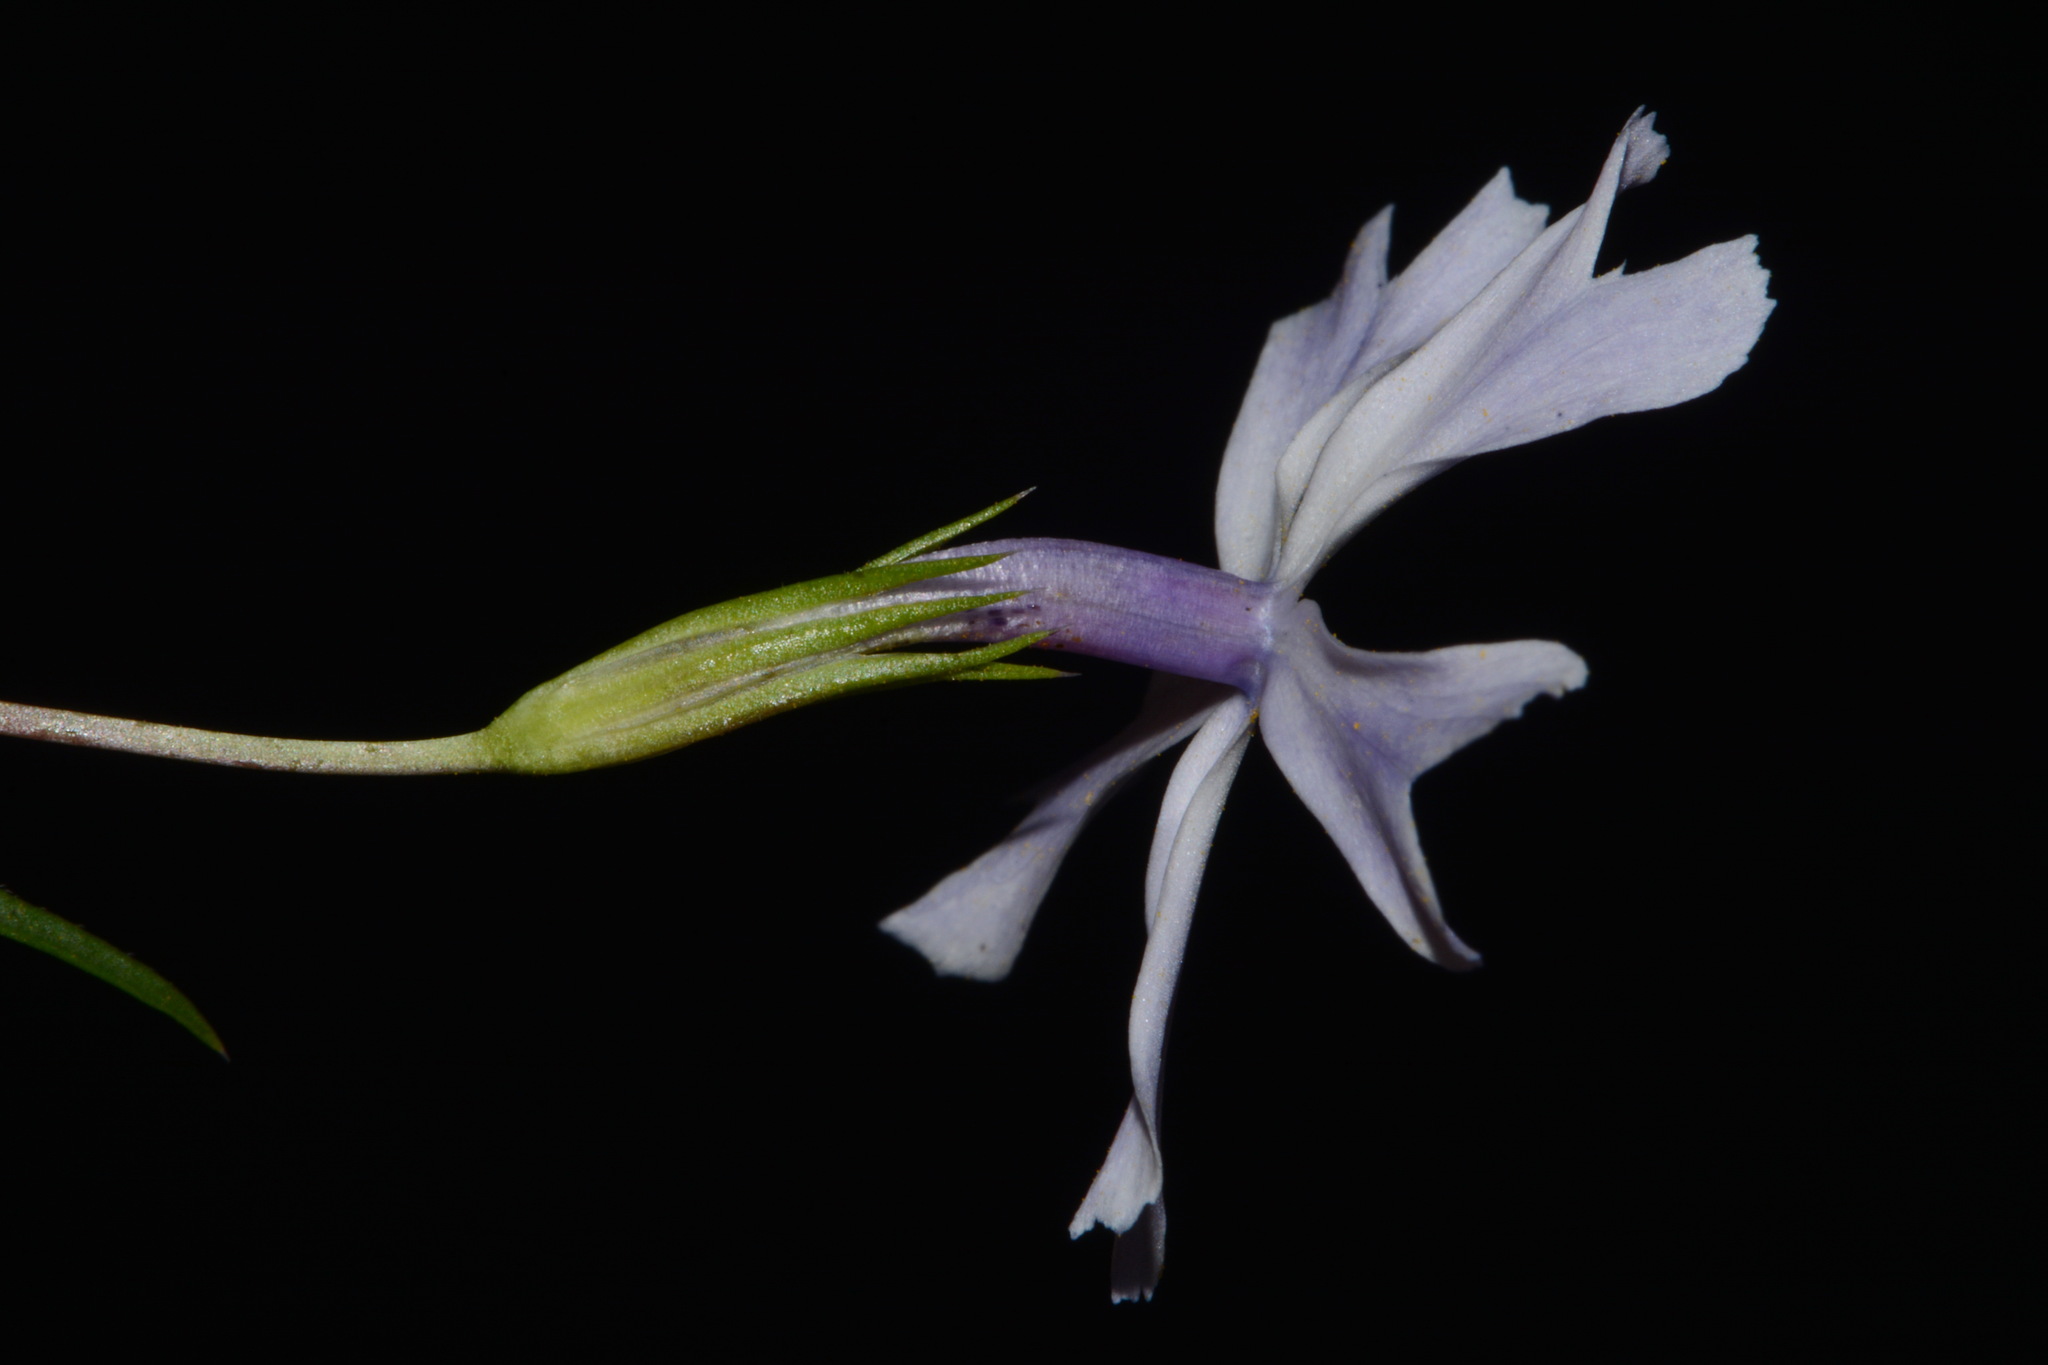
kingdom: Plantae
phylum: Tracheophyta
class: Magnoliopsida
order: Ericales
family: Polemoniaceae
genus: Phlox
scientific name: Phlox bifida
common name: Sand phlox
